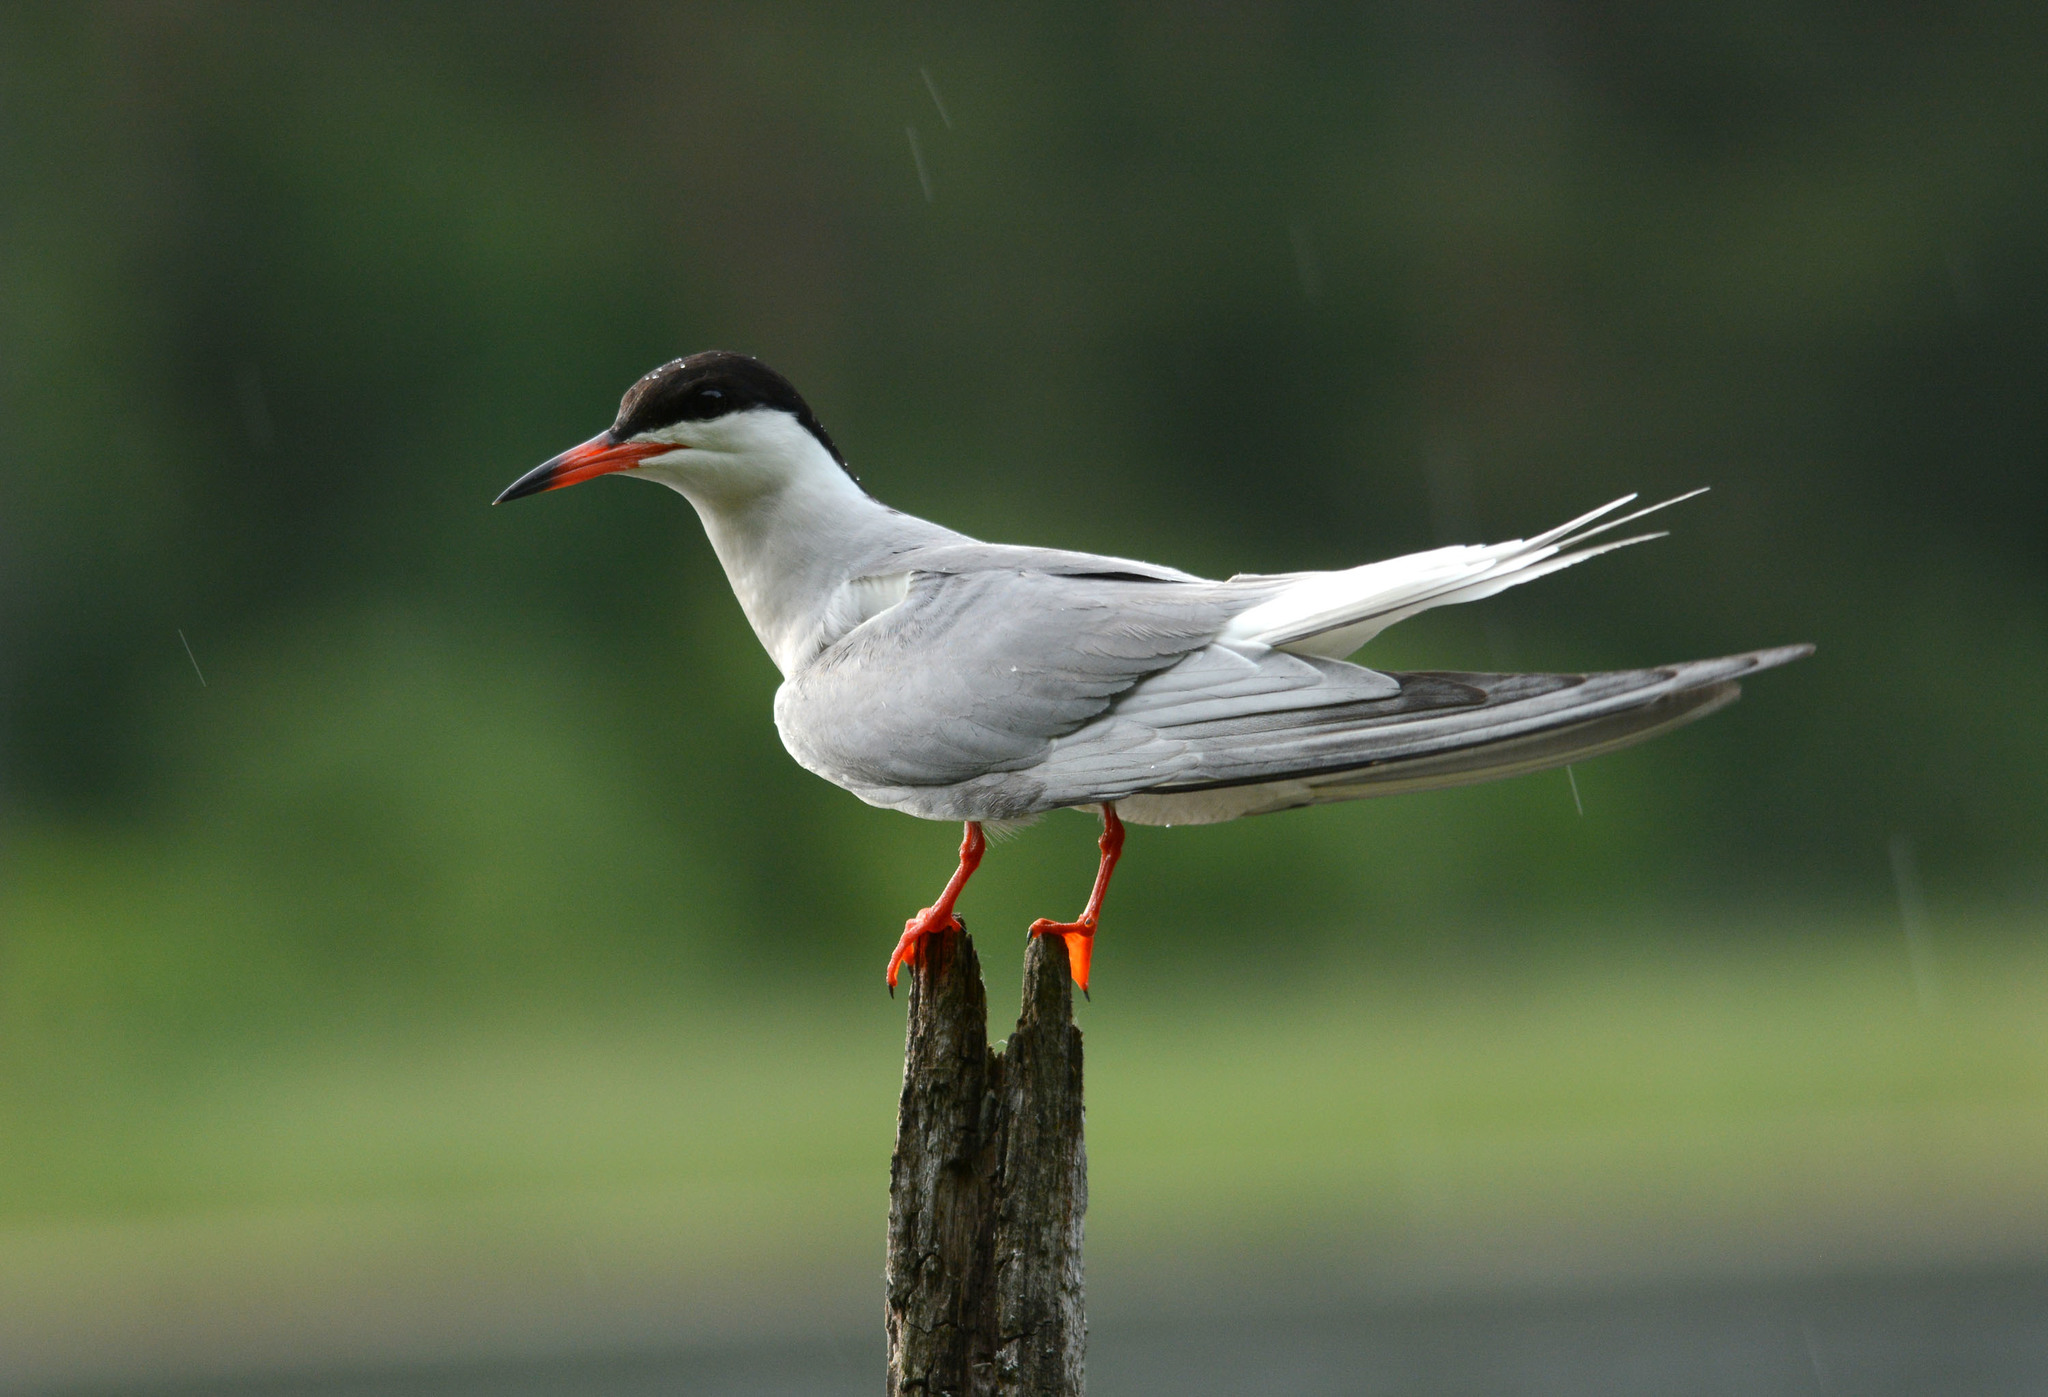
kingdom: Animalia
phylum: Chordata
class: Aves
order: Charadriiformes
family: Laridae
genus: Sterna
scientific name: Sterna hirundo
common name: Common tern
